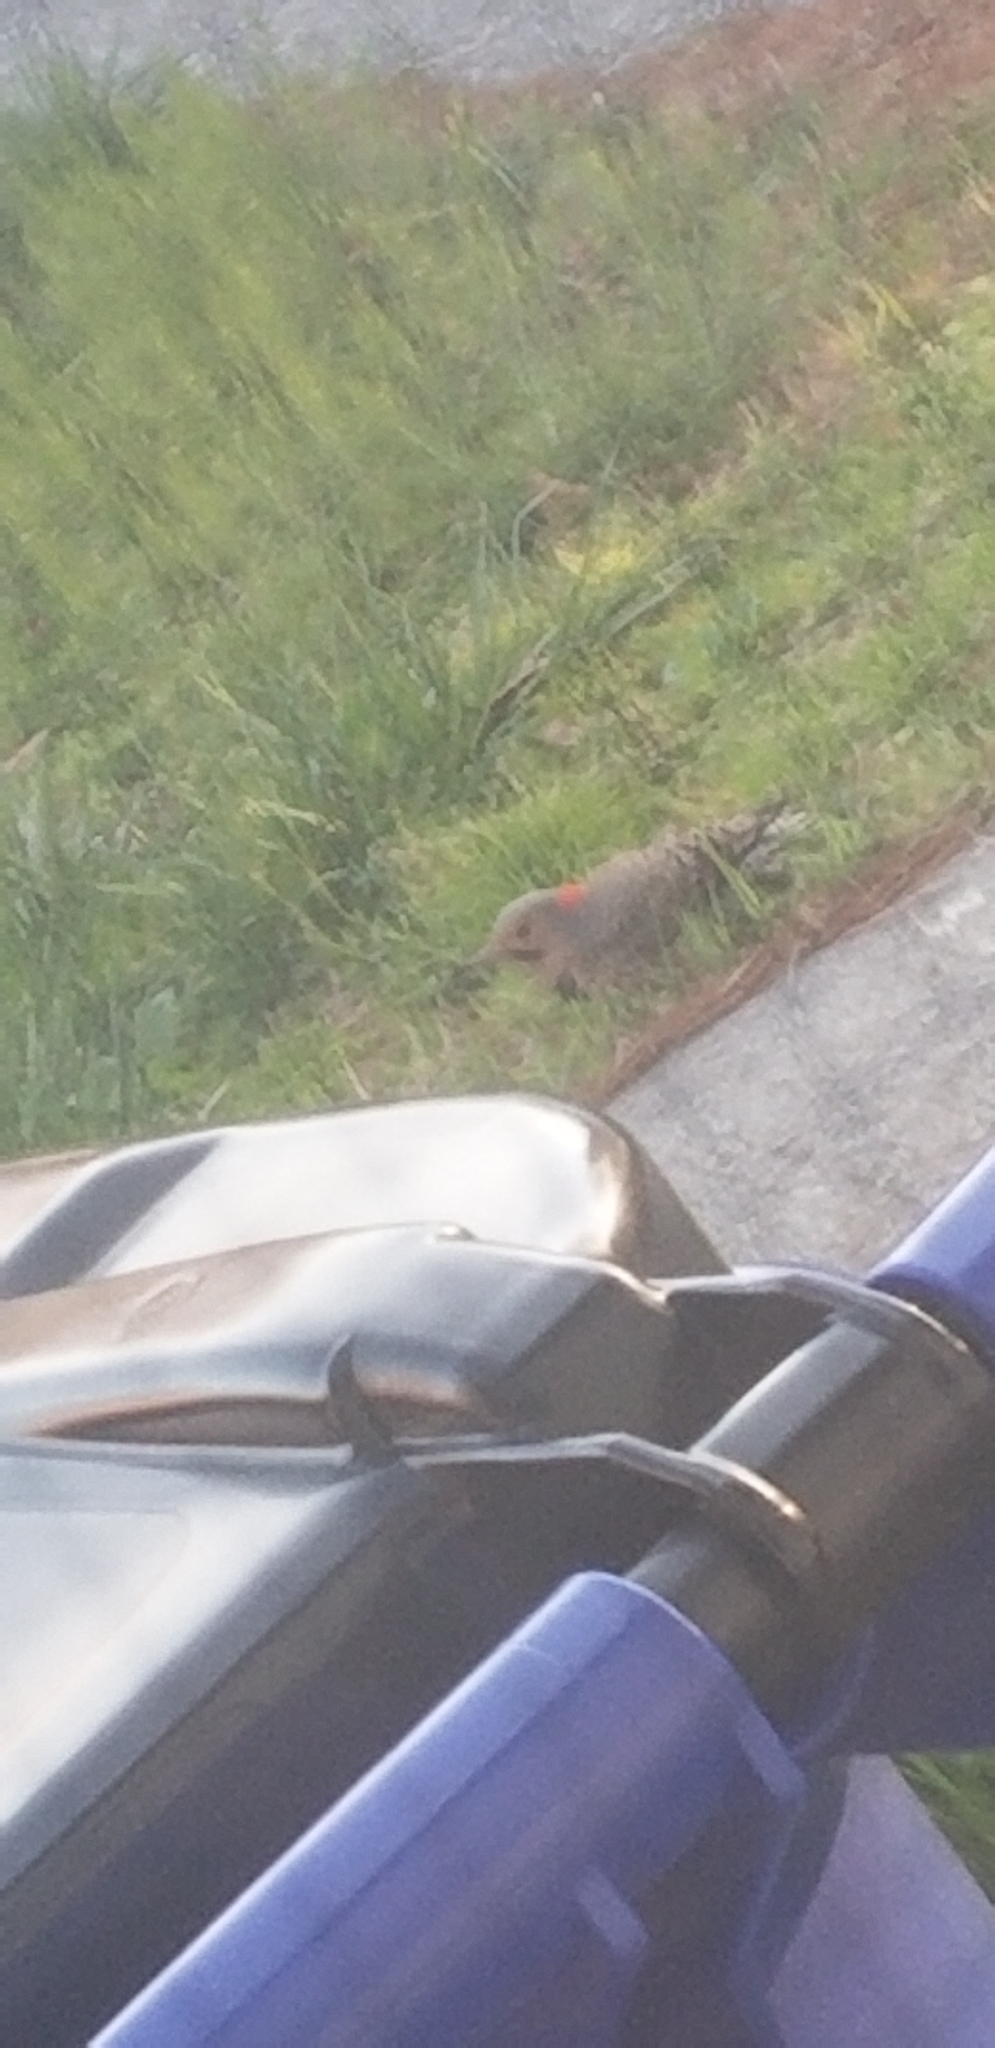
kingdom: Animalia
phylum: Chordata
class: Aves
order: Piciformes
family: Picidae
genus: Colaptes
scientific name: Colaptes auratus
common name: Northern flicker
